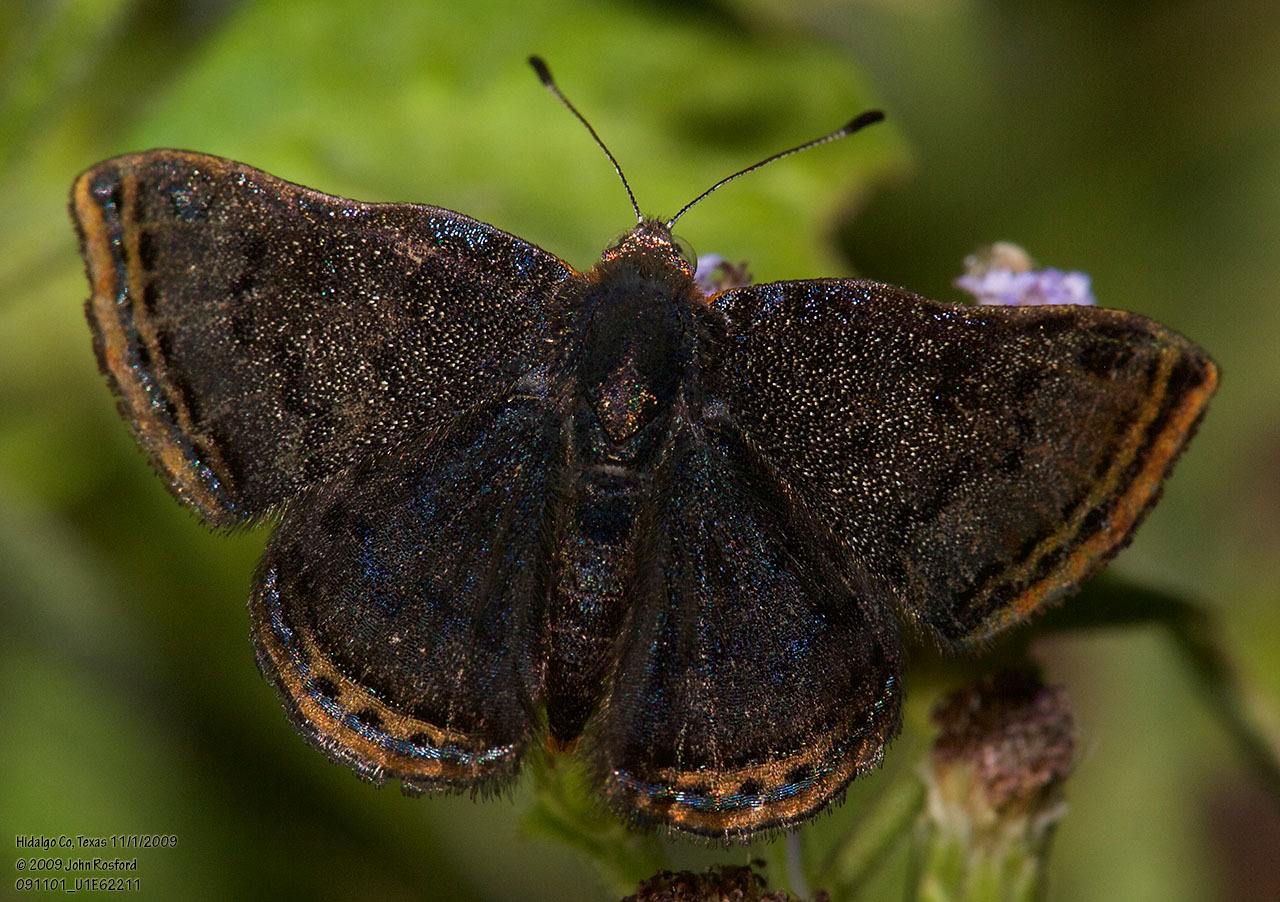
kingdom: Animalia
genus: Caria
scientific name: Caria ino
